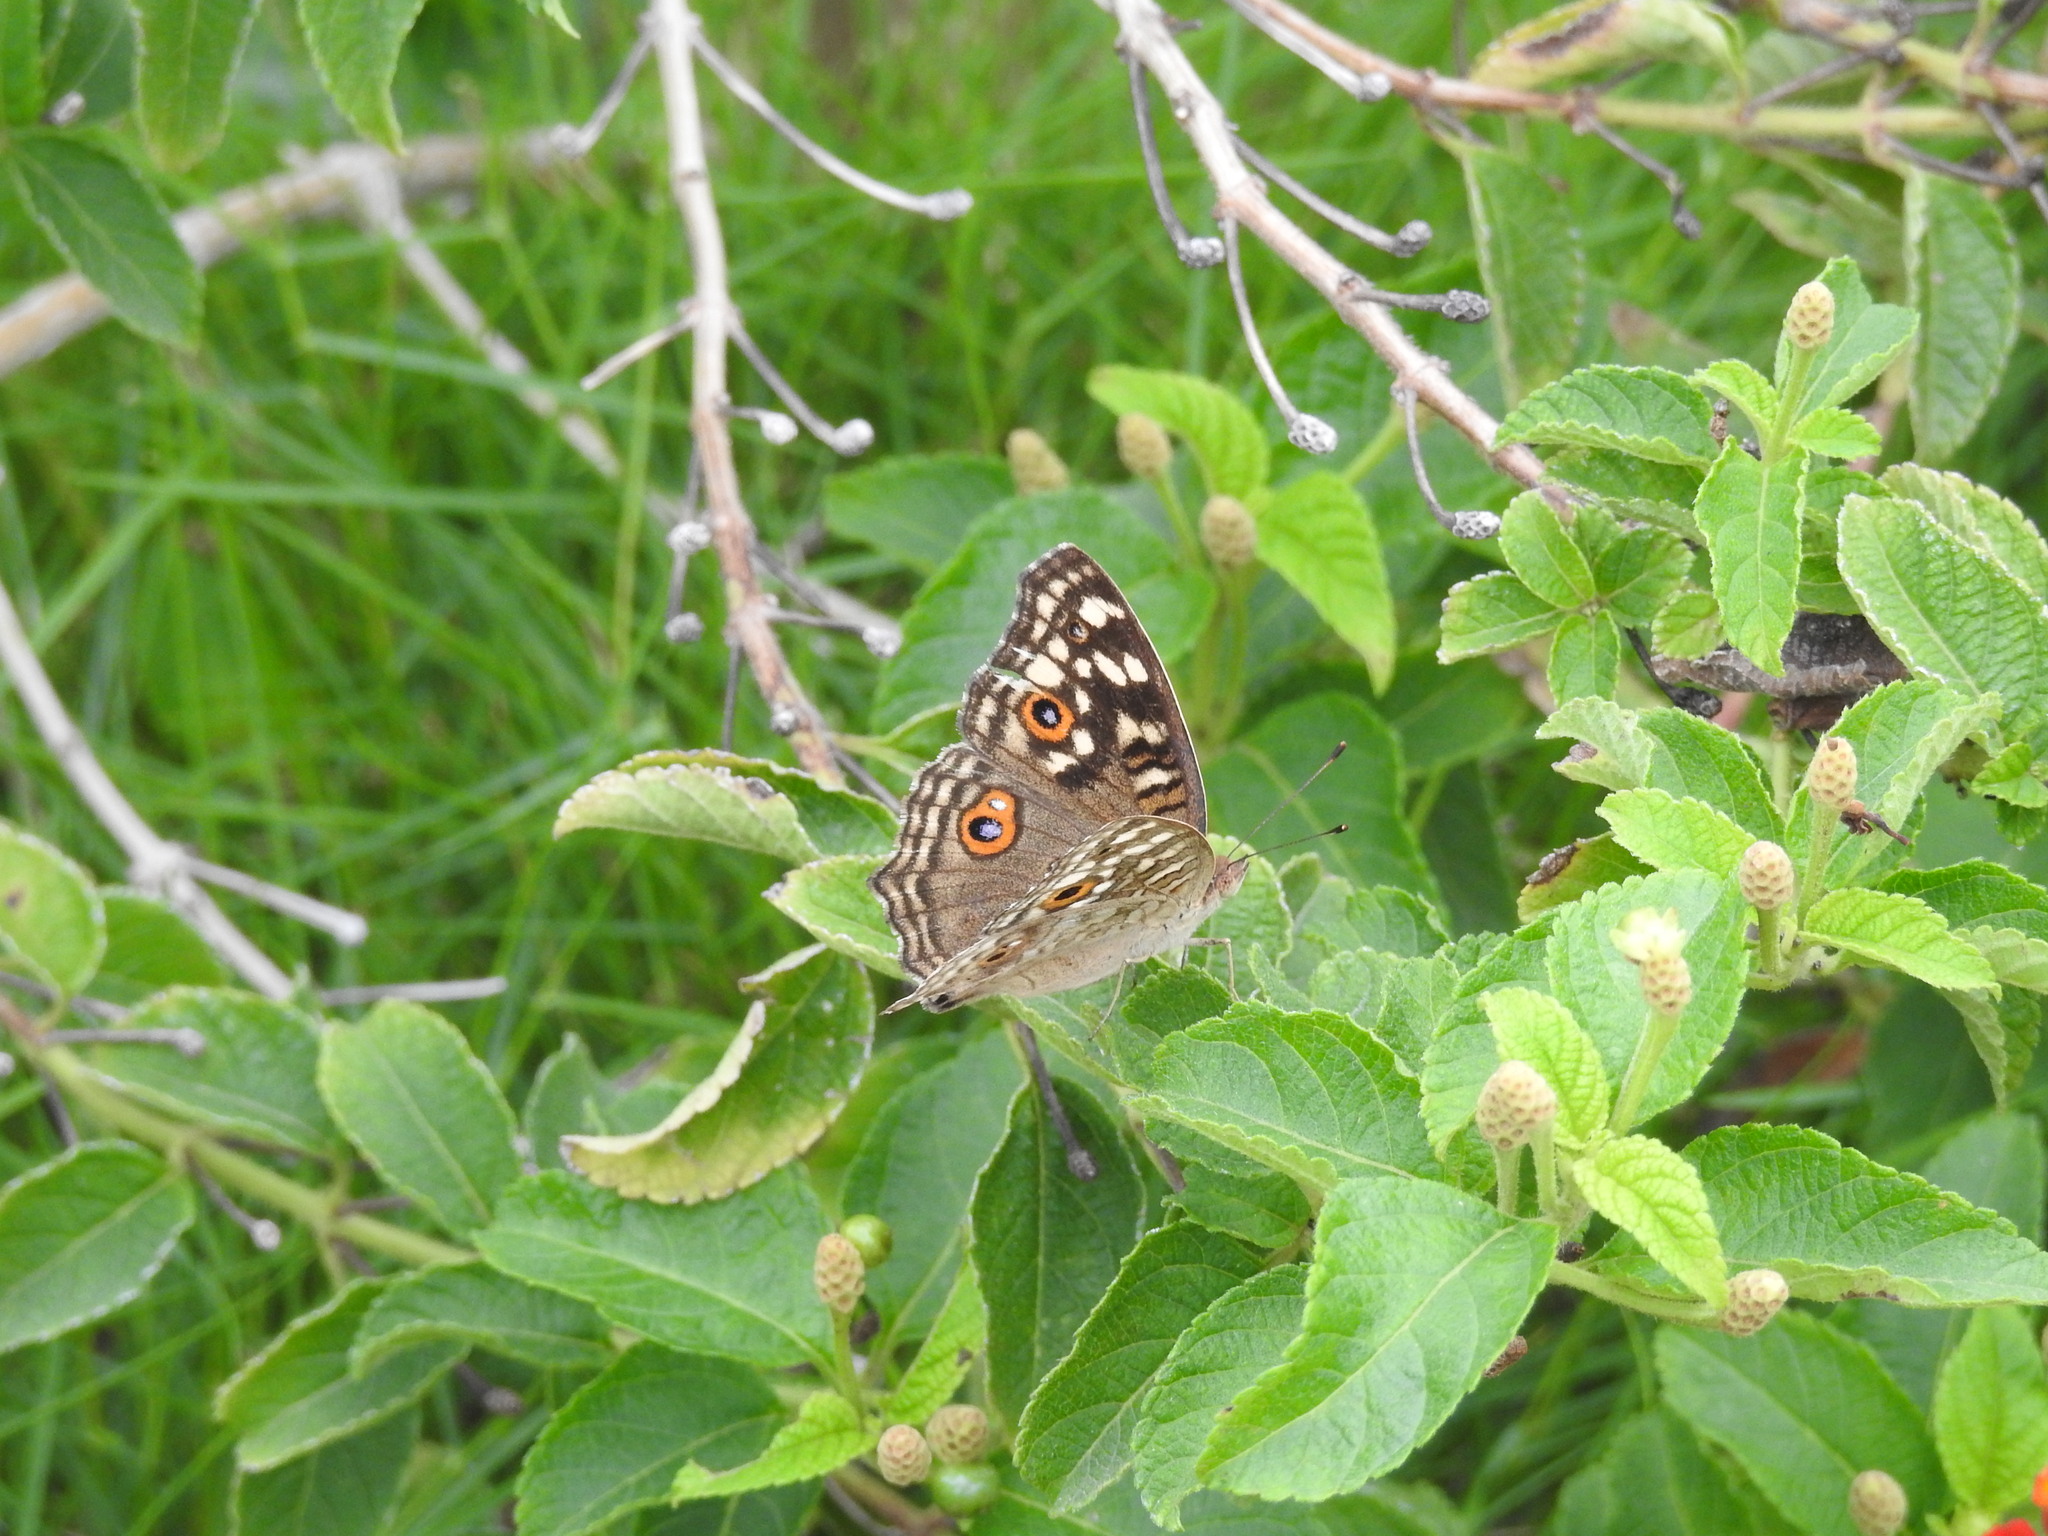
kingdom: Animalia
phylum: Arthropoda
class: Insecta
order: Lepidoptera
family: Nymphalidae
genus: Junonia
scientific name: Junonia lemonias
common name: Lemon pansy
